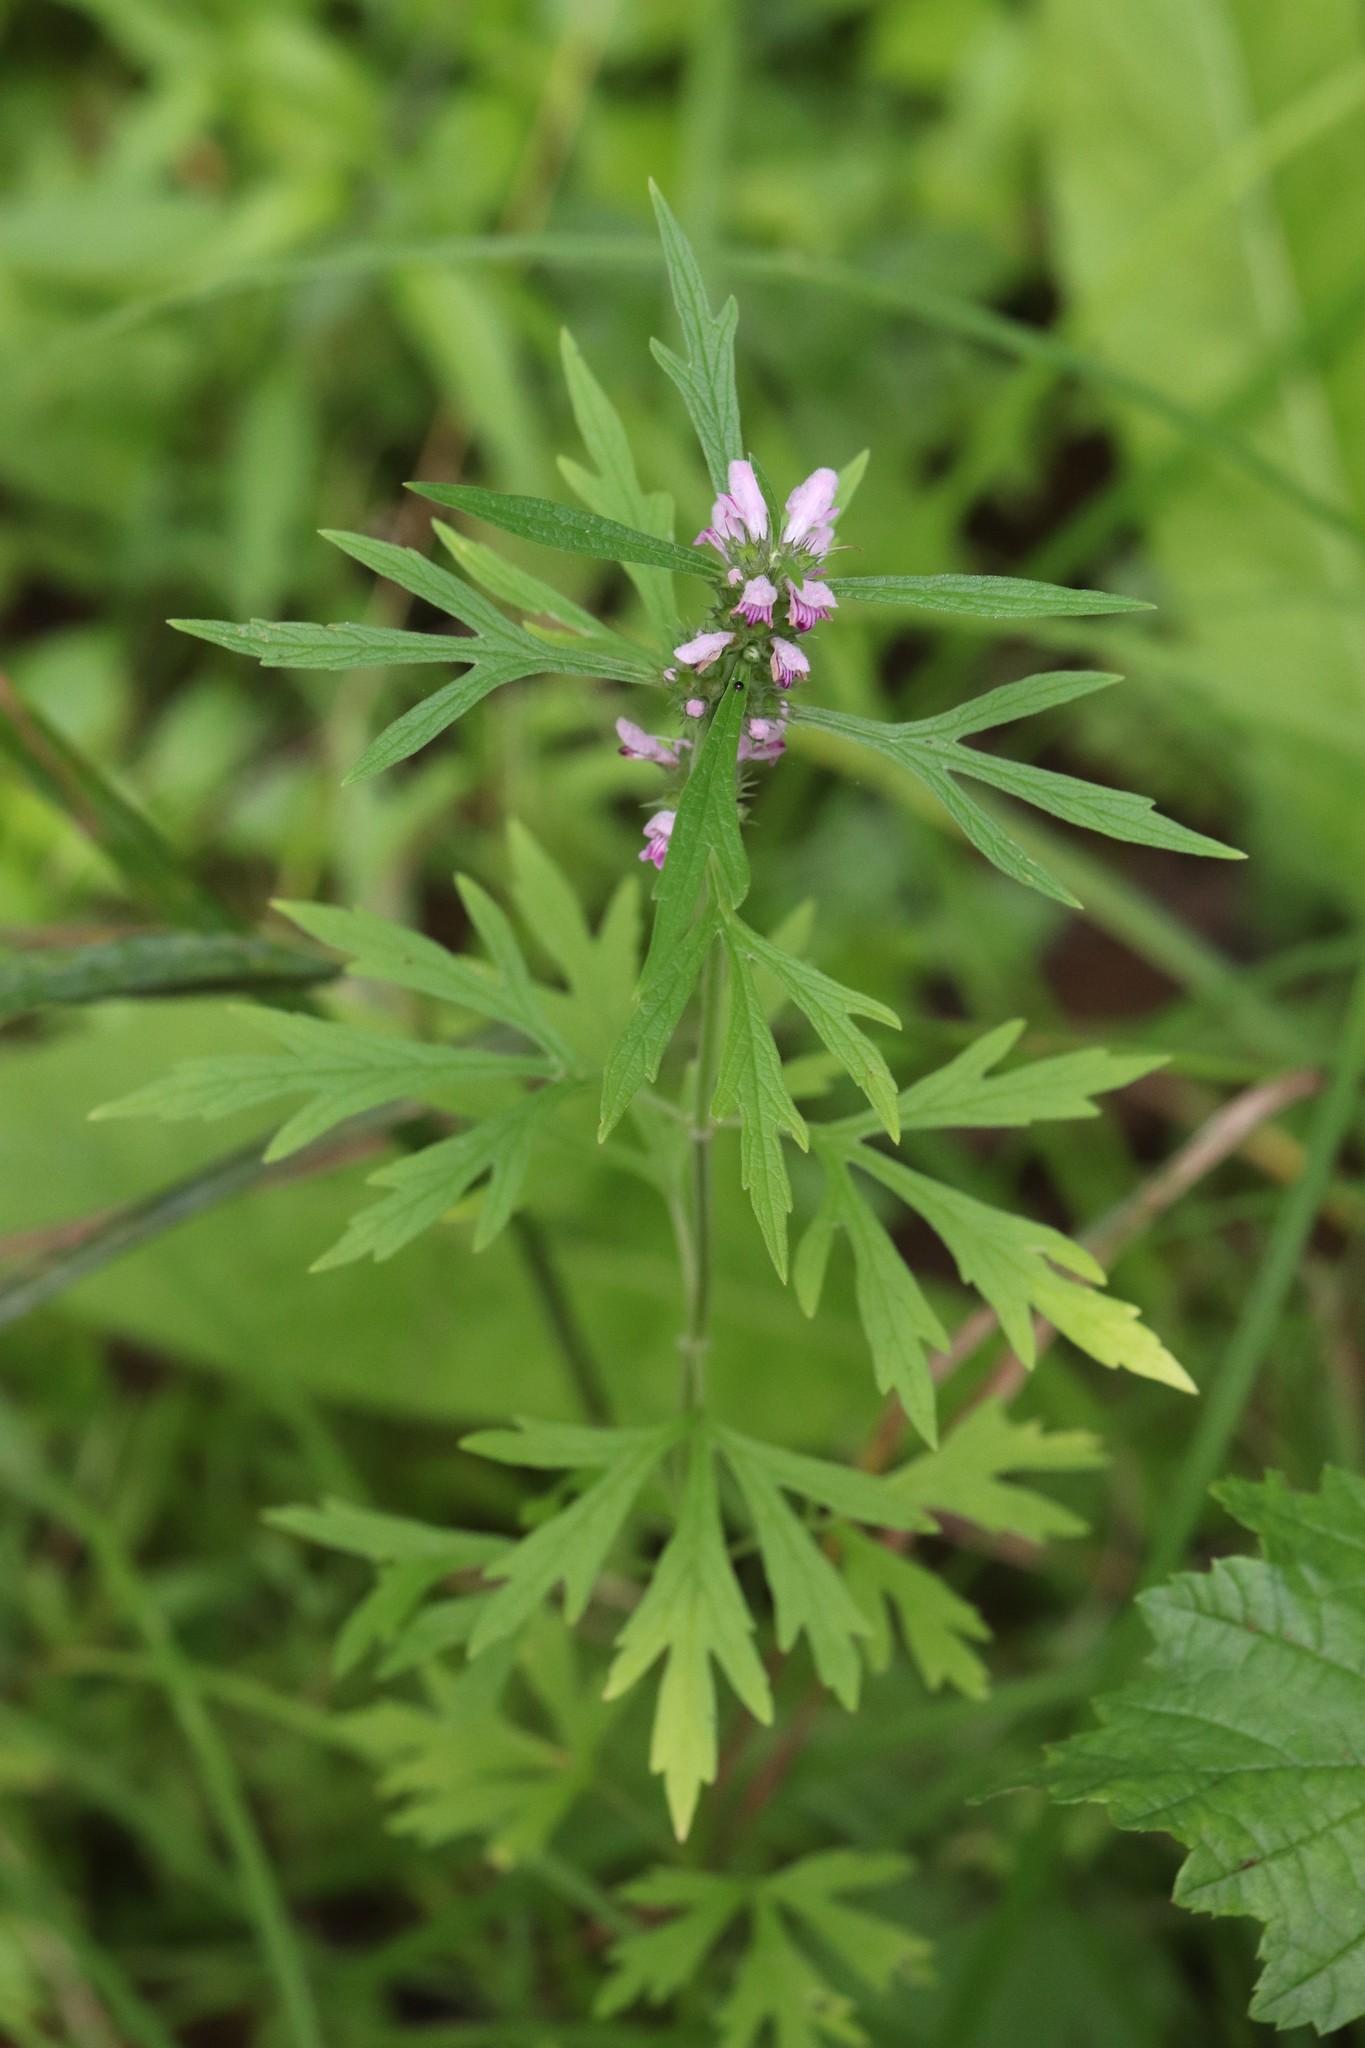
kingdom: Plantae
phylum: Tracheophyta
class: Magnoliopsida
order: Lamiales
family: Lamiaceae
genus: Leonurus
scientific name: Leonurus japonicus
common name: Honeyweed
